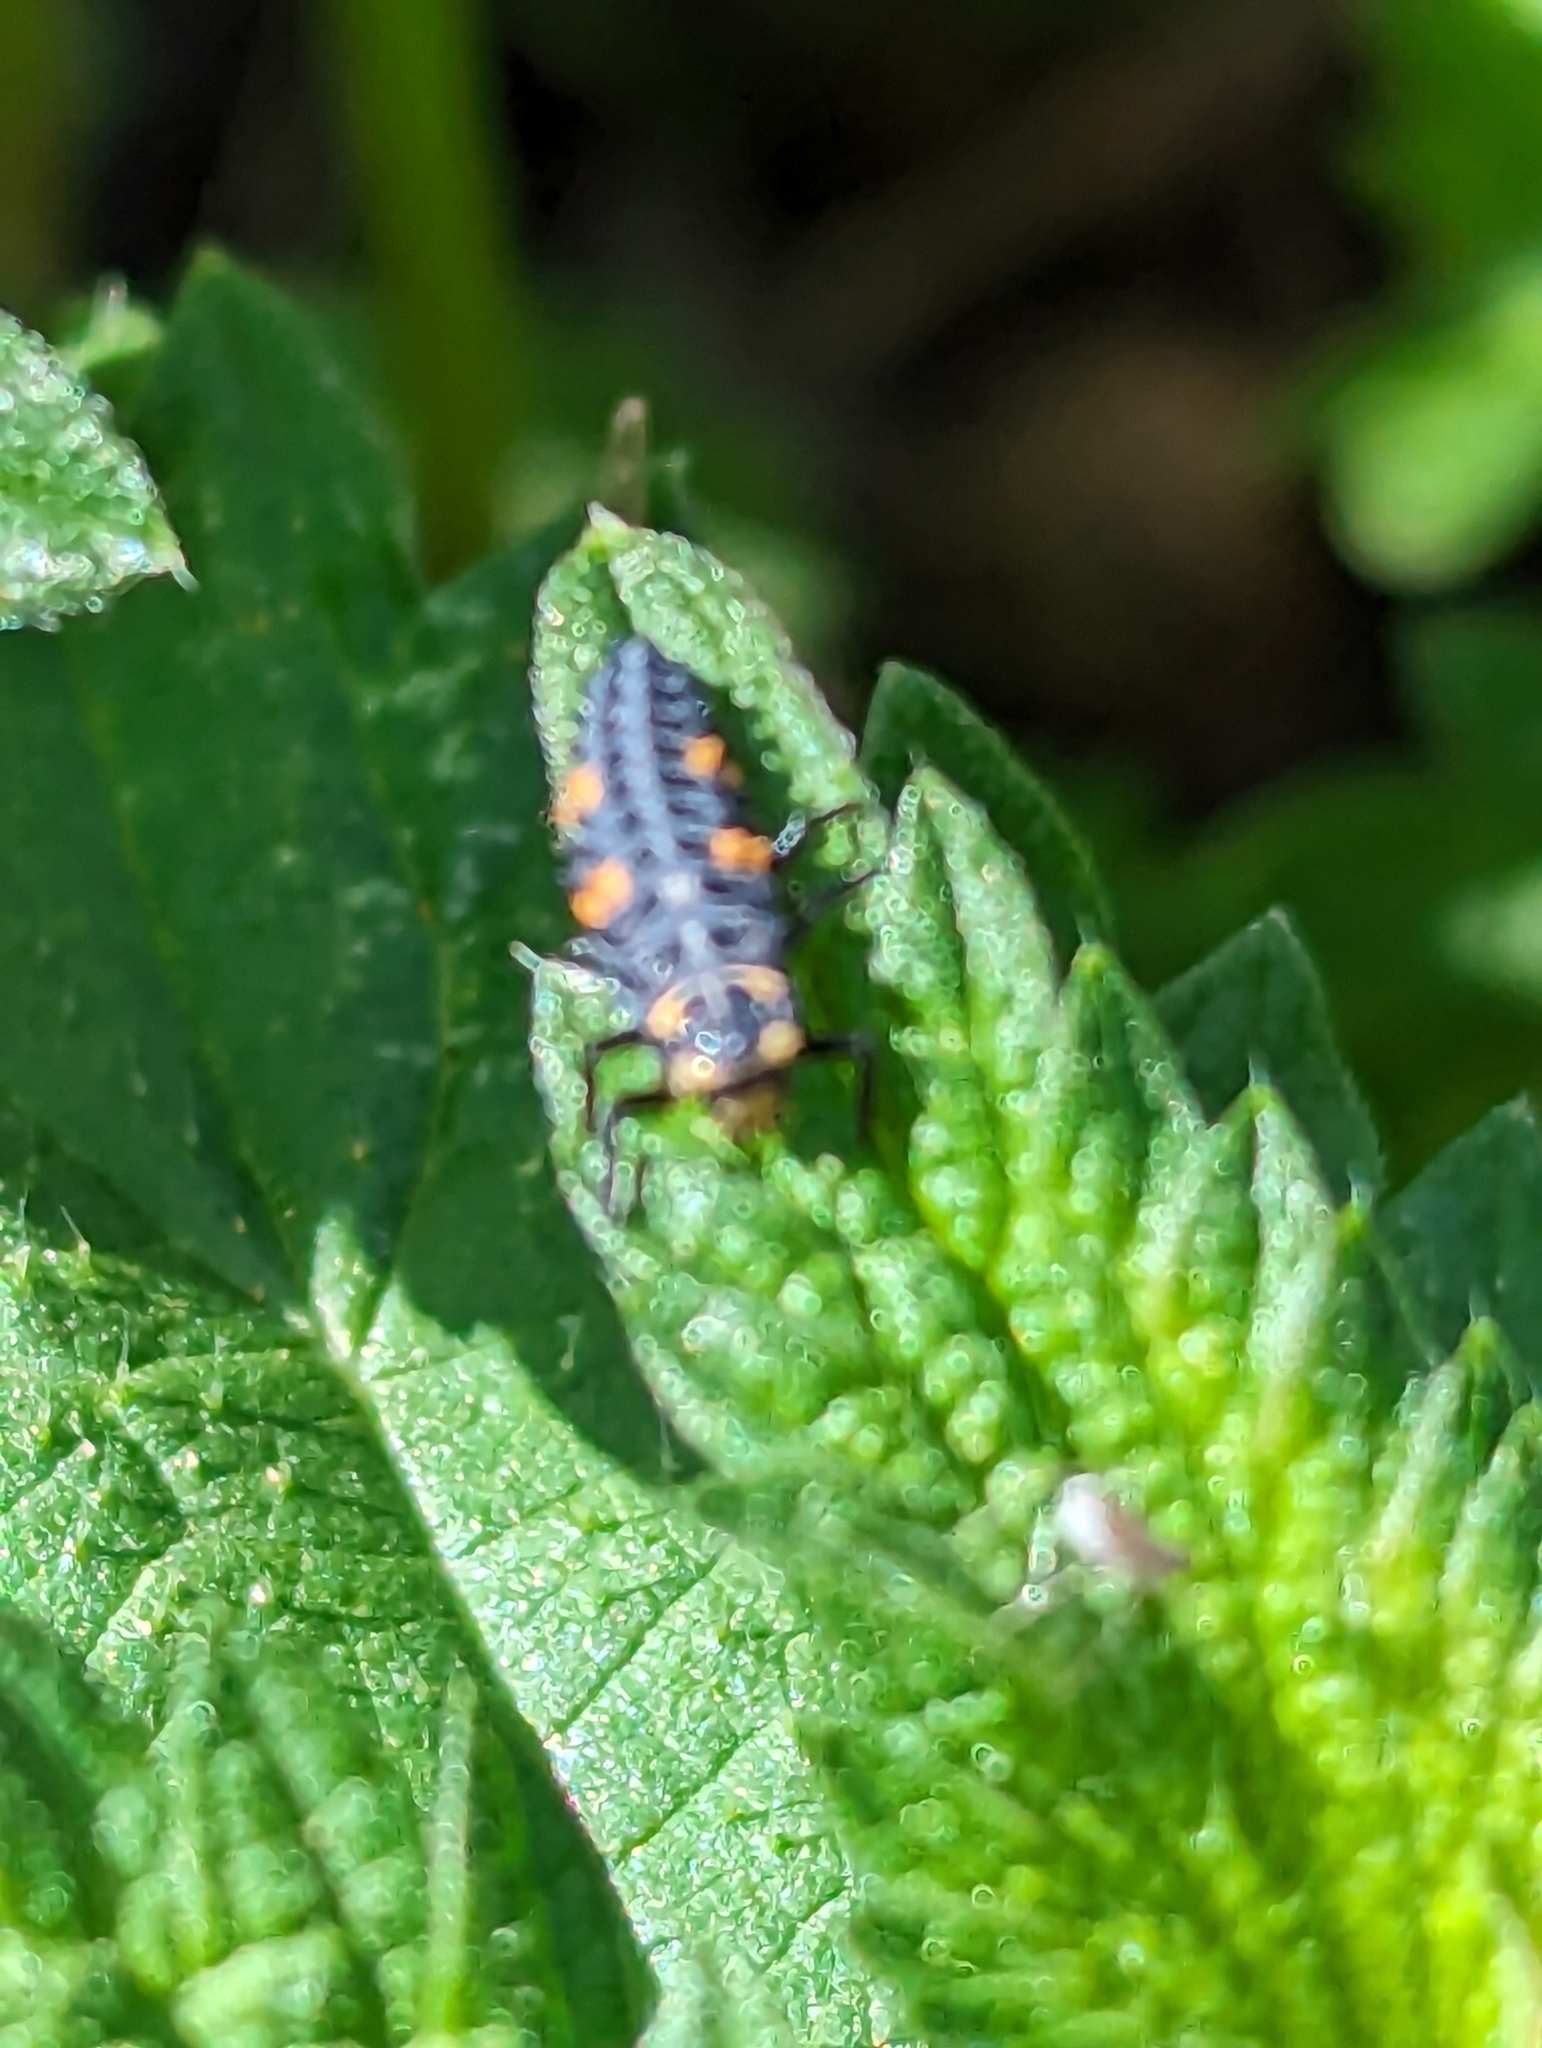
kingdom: Animalia
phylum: Arthropoda
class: Insecta
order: Coleoptera
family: Coccinellidae
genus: Coccinella
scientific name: Coccinella septempunctata
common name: Sevenspotted lady beetle
